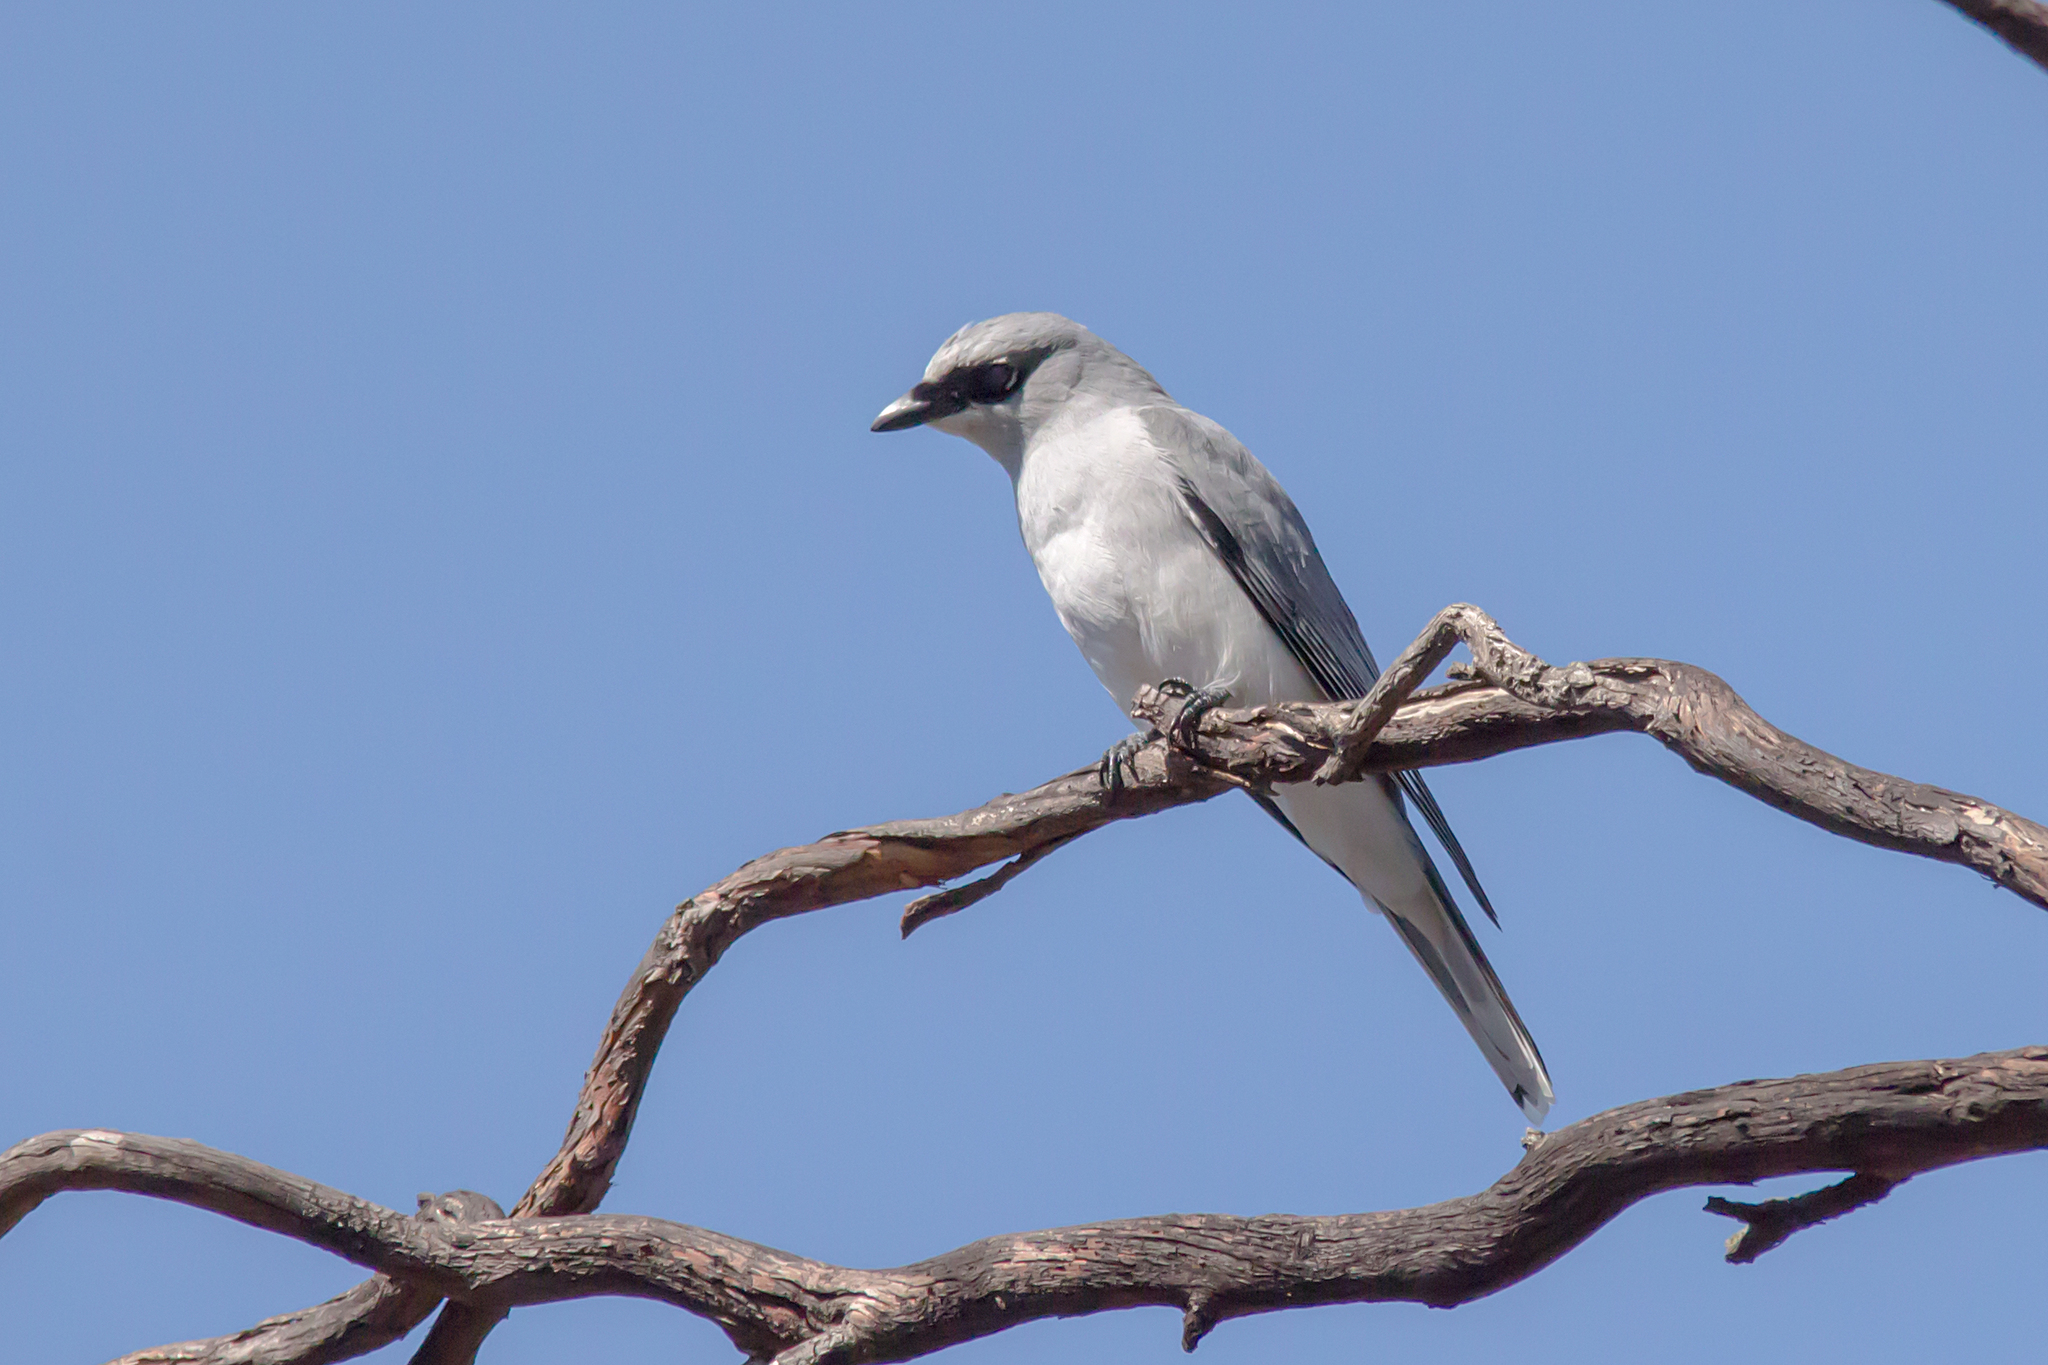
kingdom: Animalia
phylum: Chordata
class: Aves
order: Passeriformes
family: Campephagidae
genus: Coracina
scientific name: Coracina papuensis
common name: White-bellied cuckooshrike
